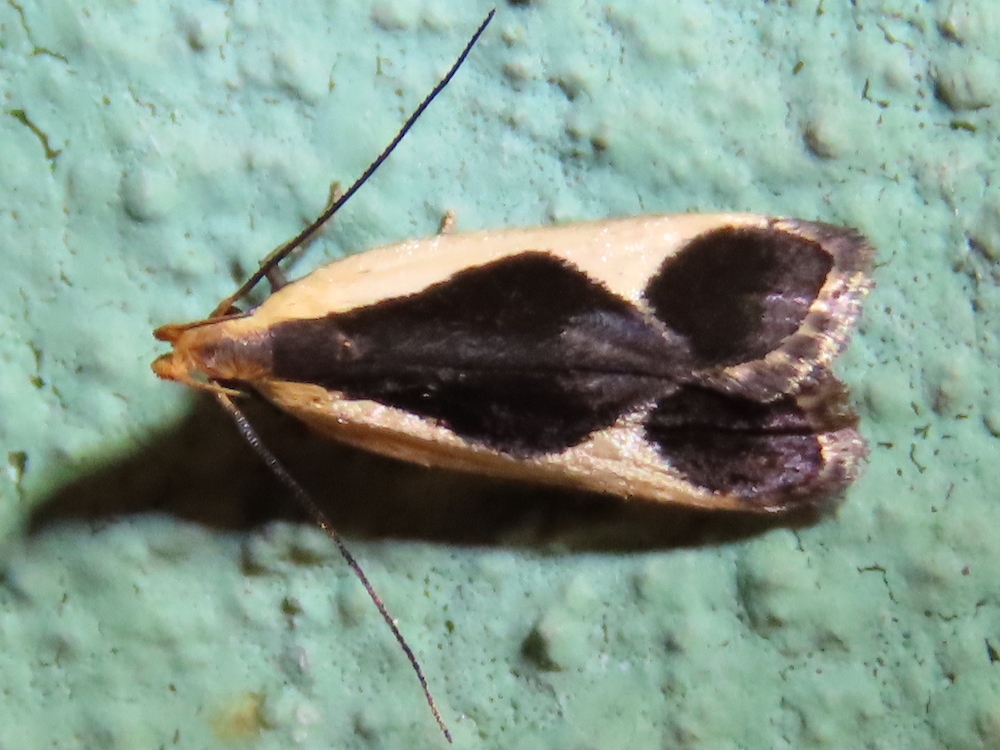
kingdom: Animalia
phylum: Arthropoda
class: Insecta
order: Lepidoptera
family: Gelechiidae
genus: Dichomeris
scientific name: Dichomeris flavocostella
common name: Cream-edged dichomeris moth
